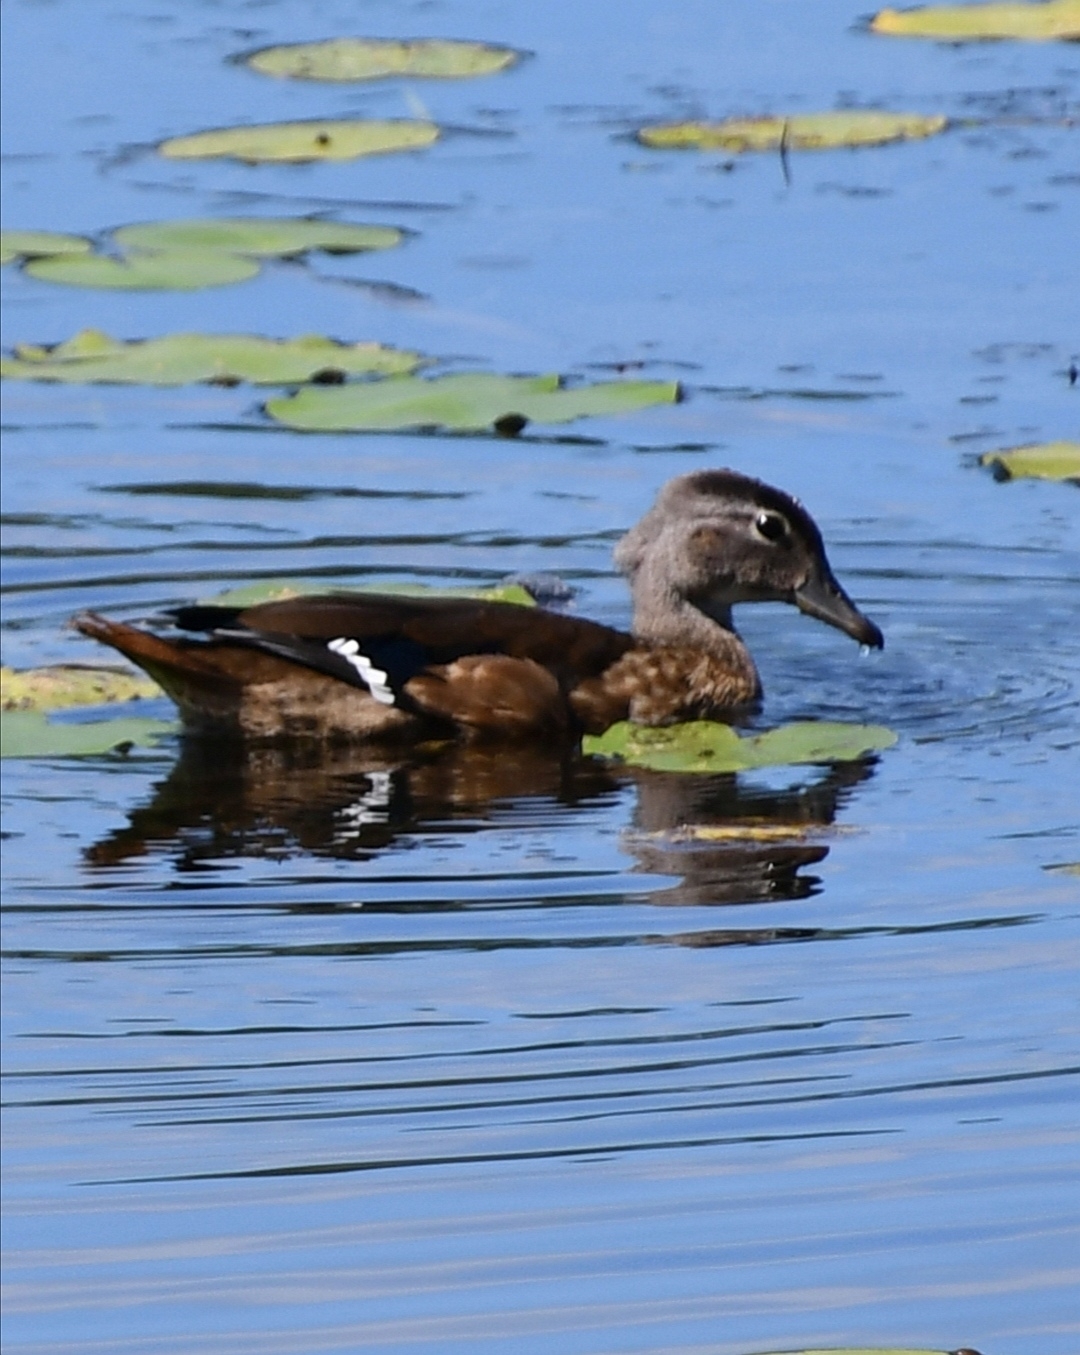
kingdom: Animalia
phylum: Chordata
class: Aves
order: Anseriformes
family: Anatidae
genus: Aix
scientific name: Aix sponsa
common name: Wood duck
